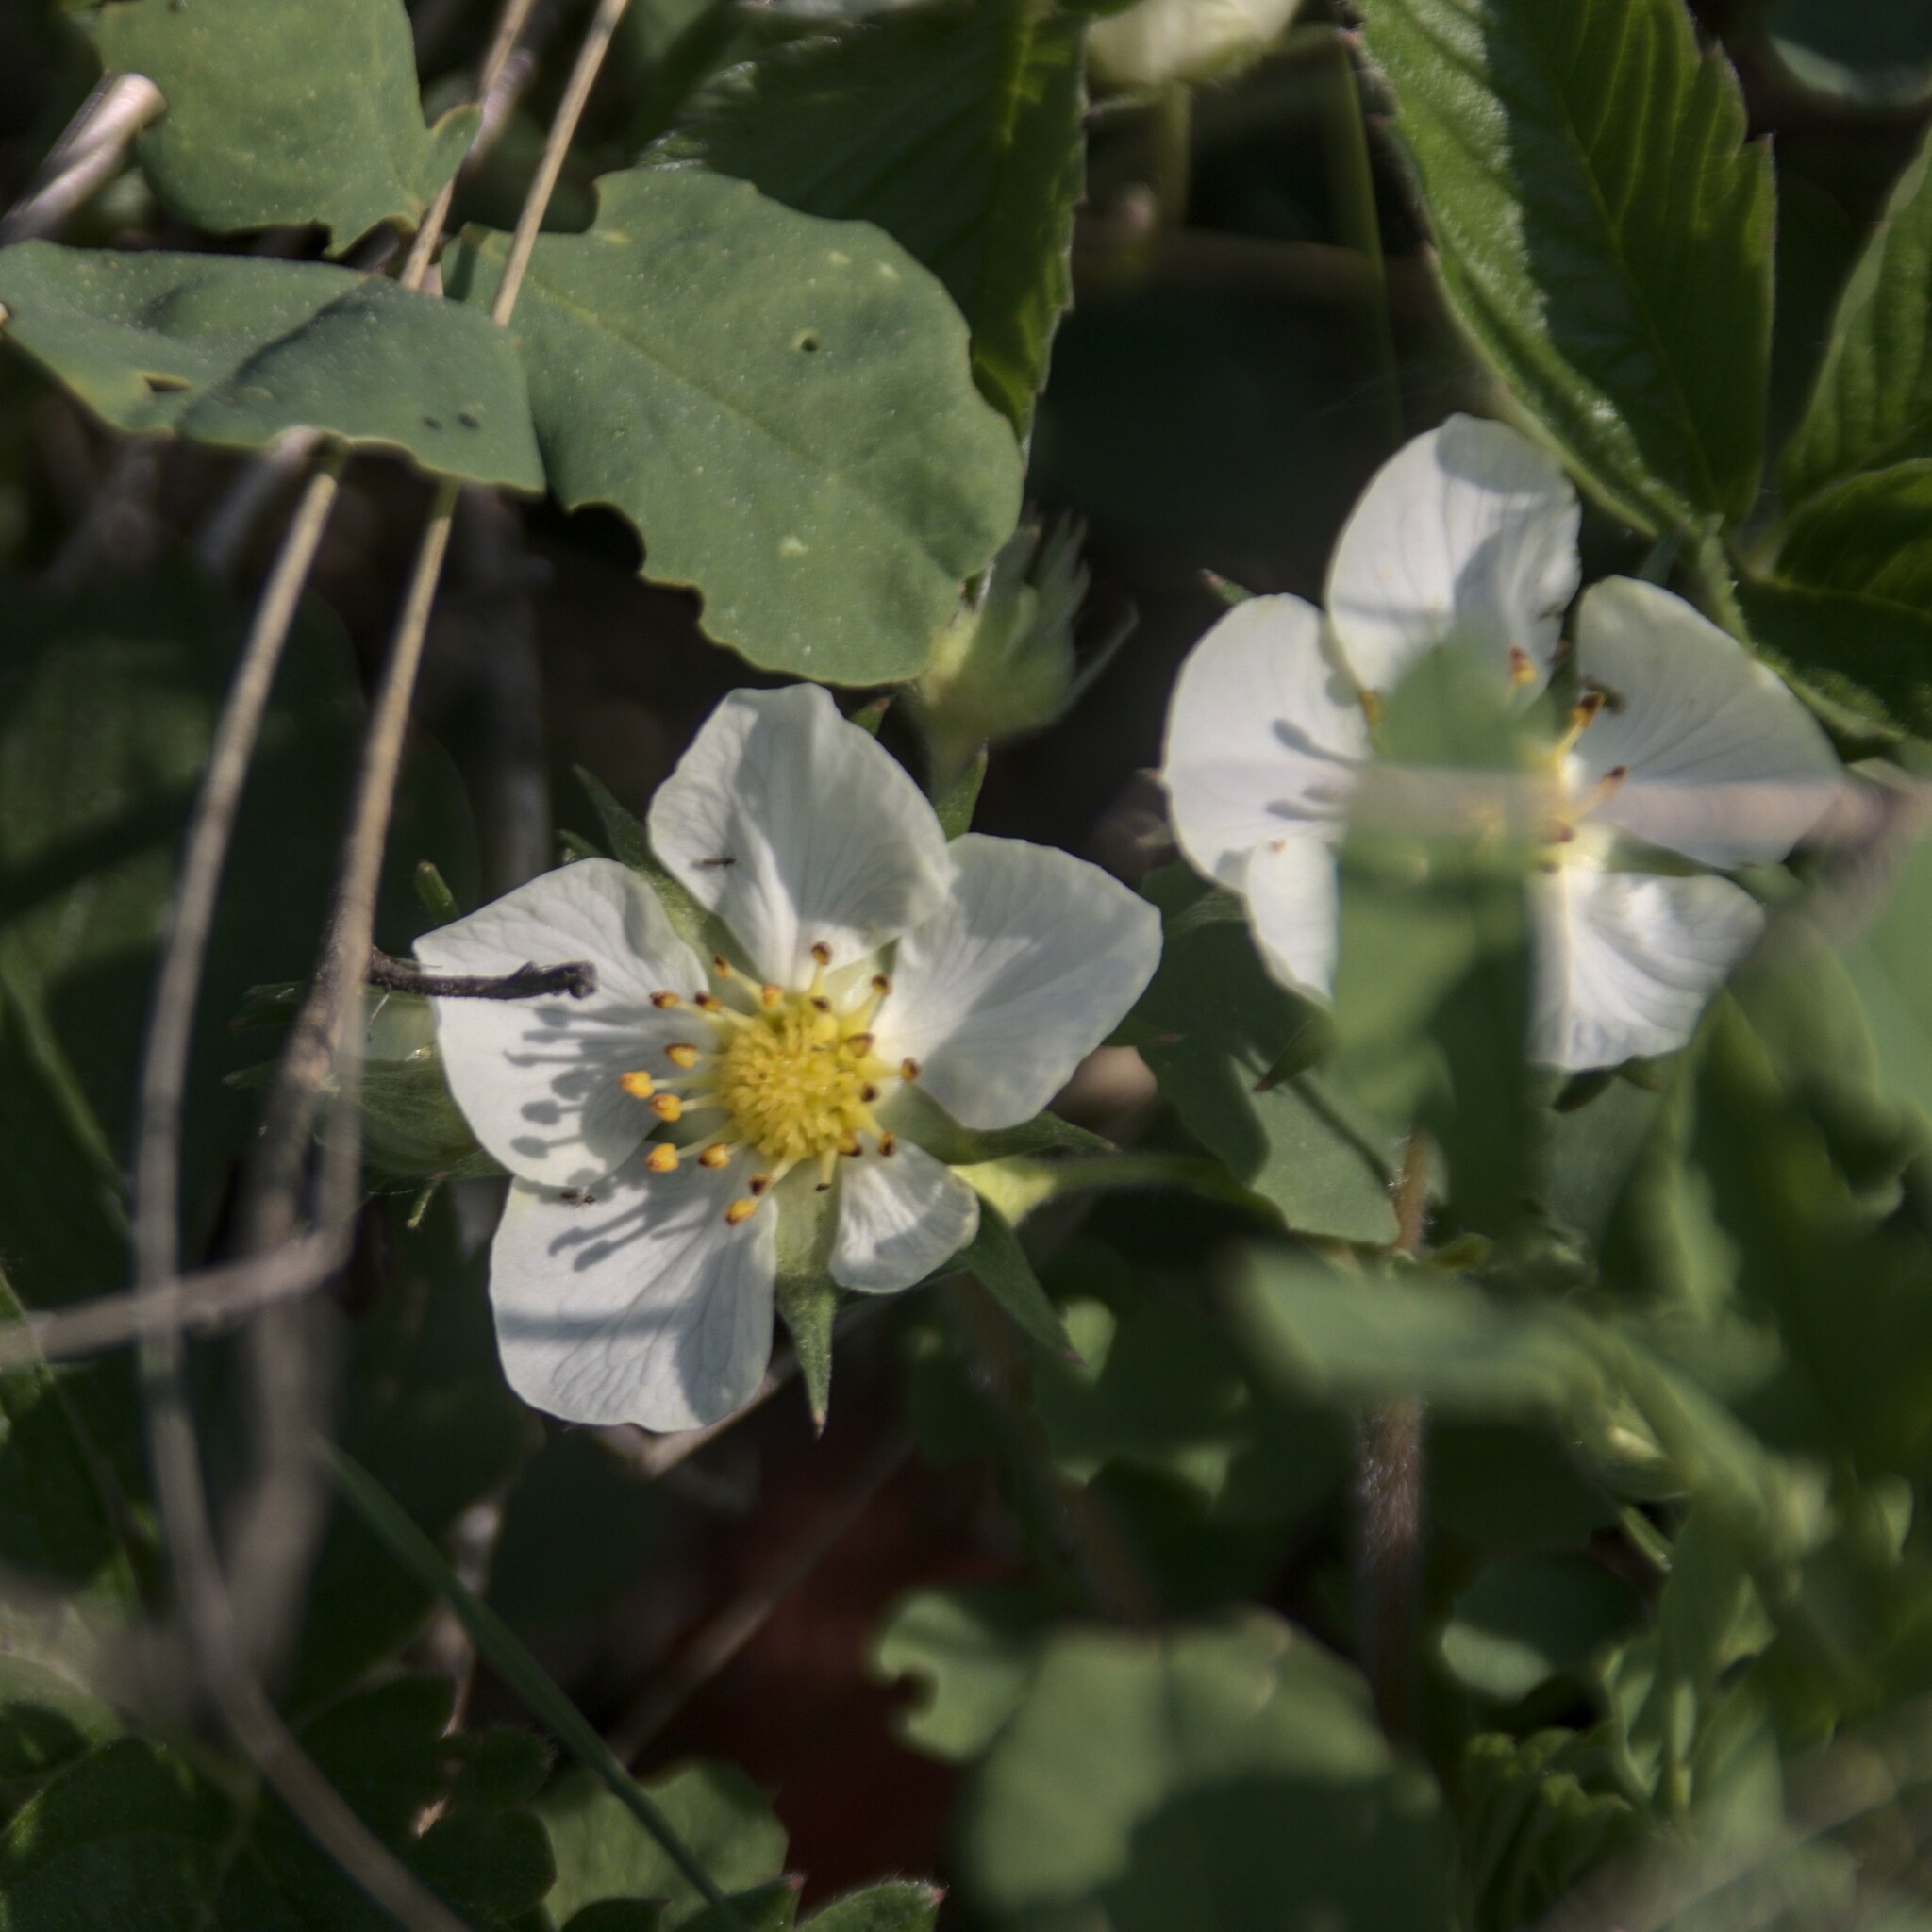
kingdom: Plantae
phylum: Tracheophyta
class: Magnoliopsida
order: Rosales
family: Rosaceae
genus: Fragaria
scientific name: Fragaria viridis
